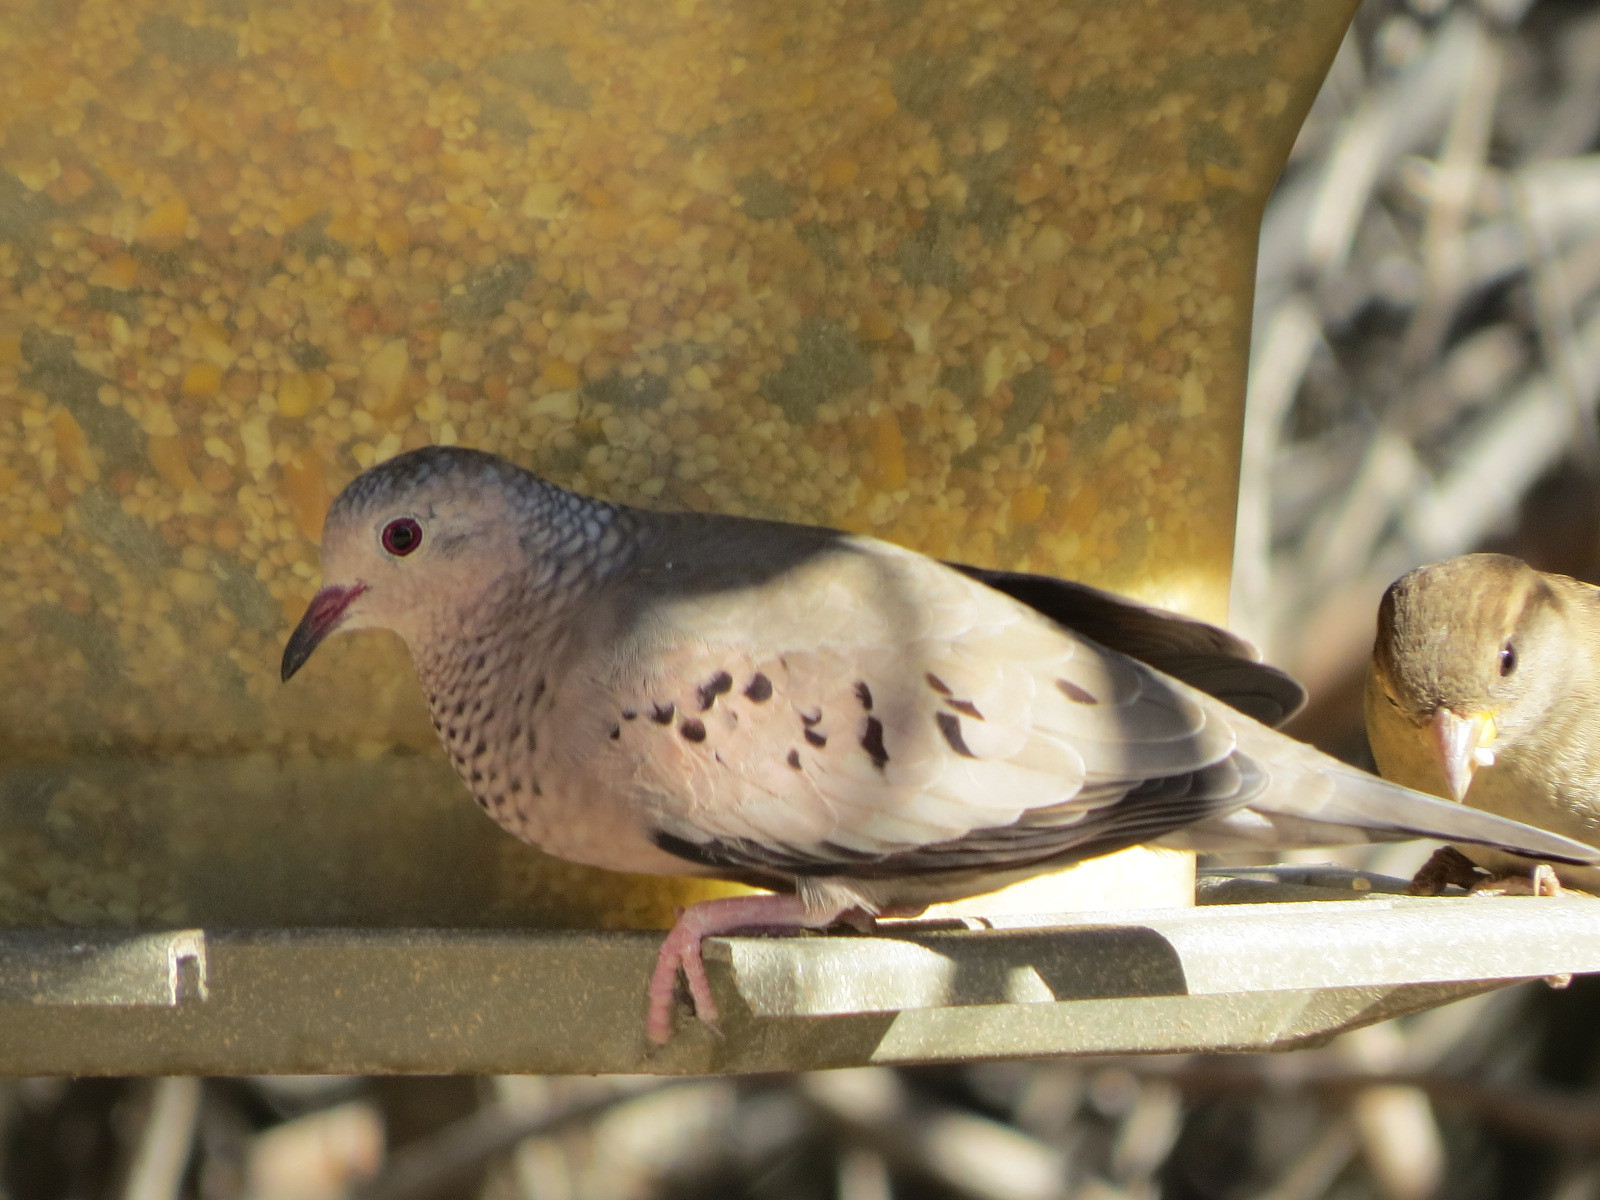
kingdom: Animalia
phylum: Chordata
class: Aves
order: Columbiformes
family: Columbidae
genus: Columbina
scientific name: Columbina passerina
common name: Common ground-dove
